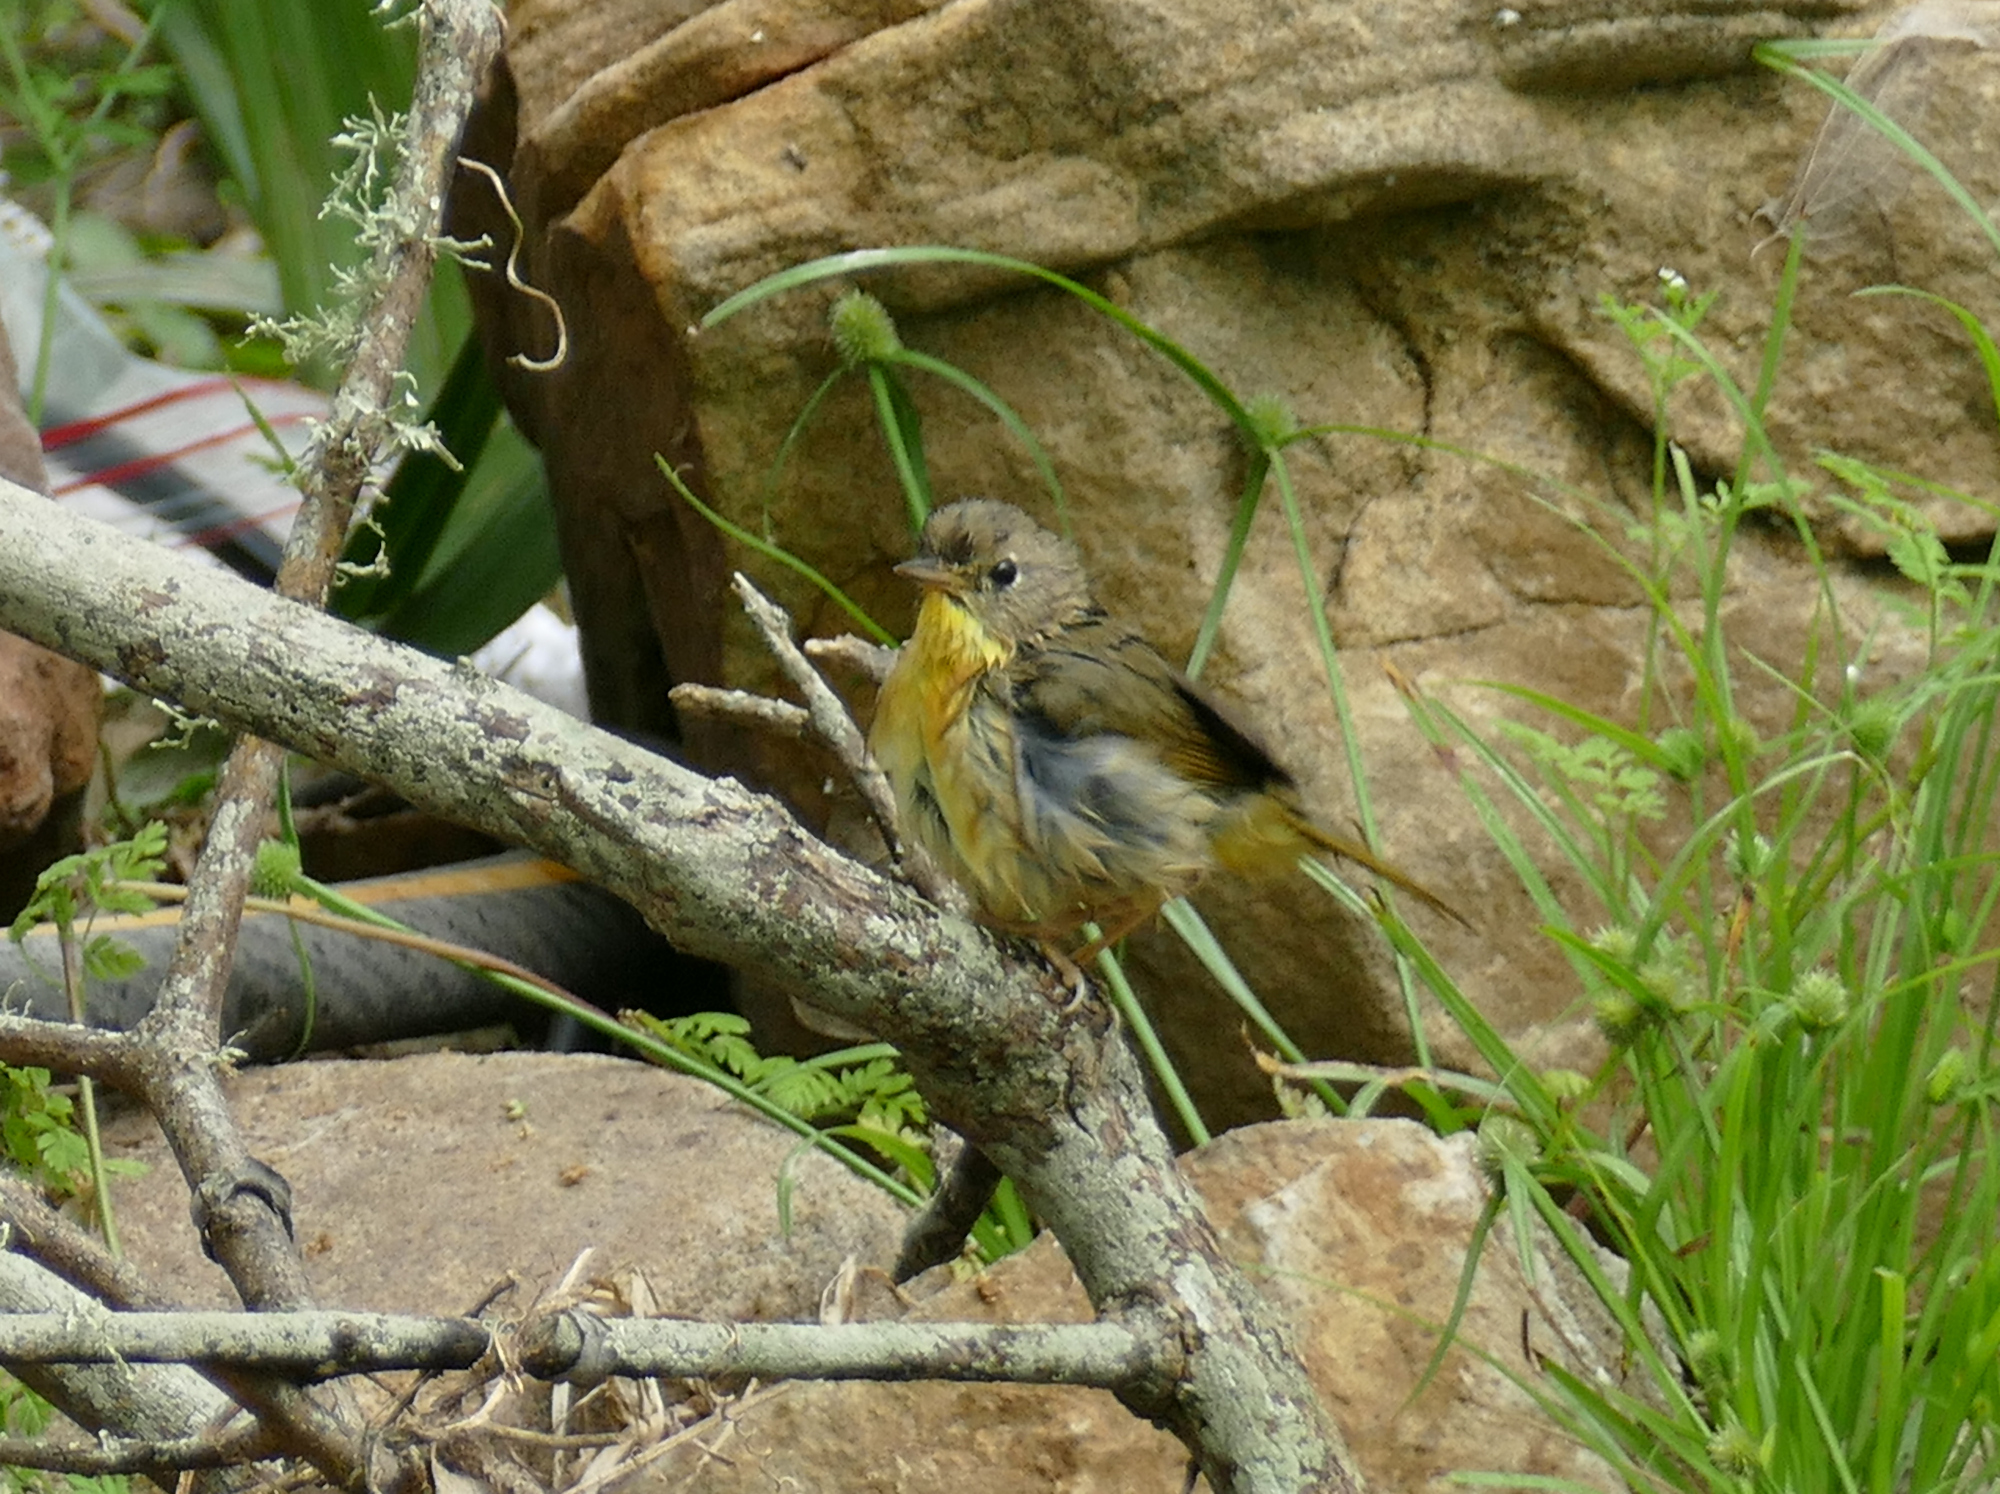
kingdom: Animalia
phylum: Chordata
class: Aves
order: Passeriformes
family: Parulidae
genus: Geothlypis
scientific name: Geothlypis trichas
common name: Common yellowthroat
